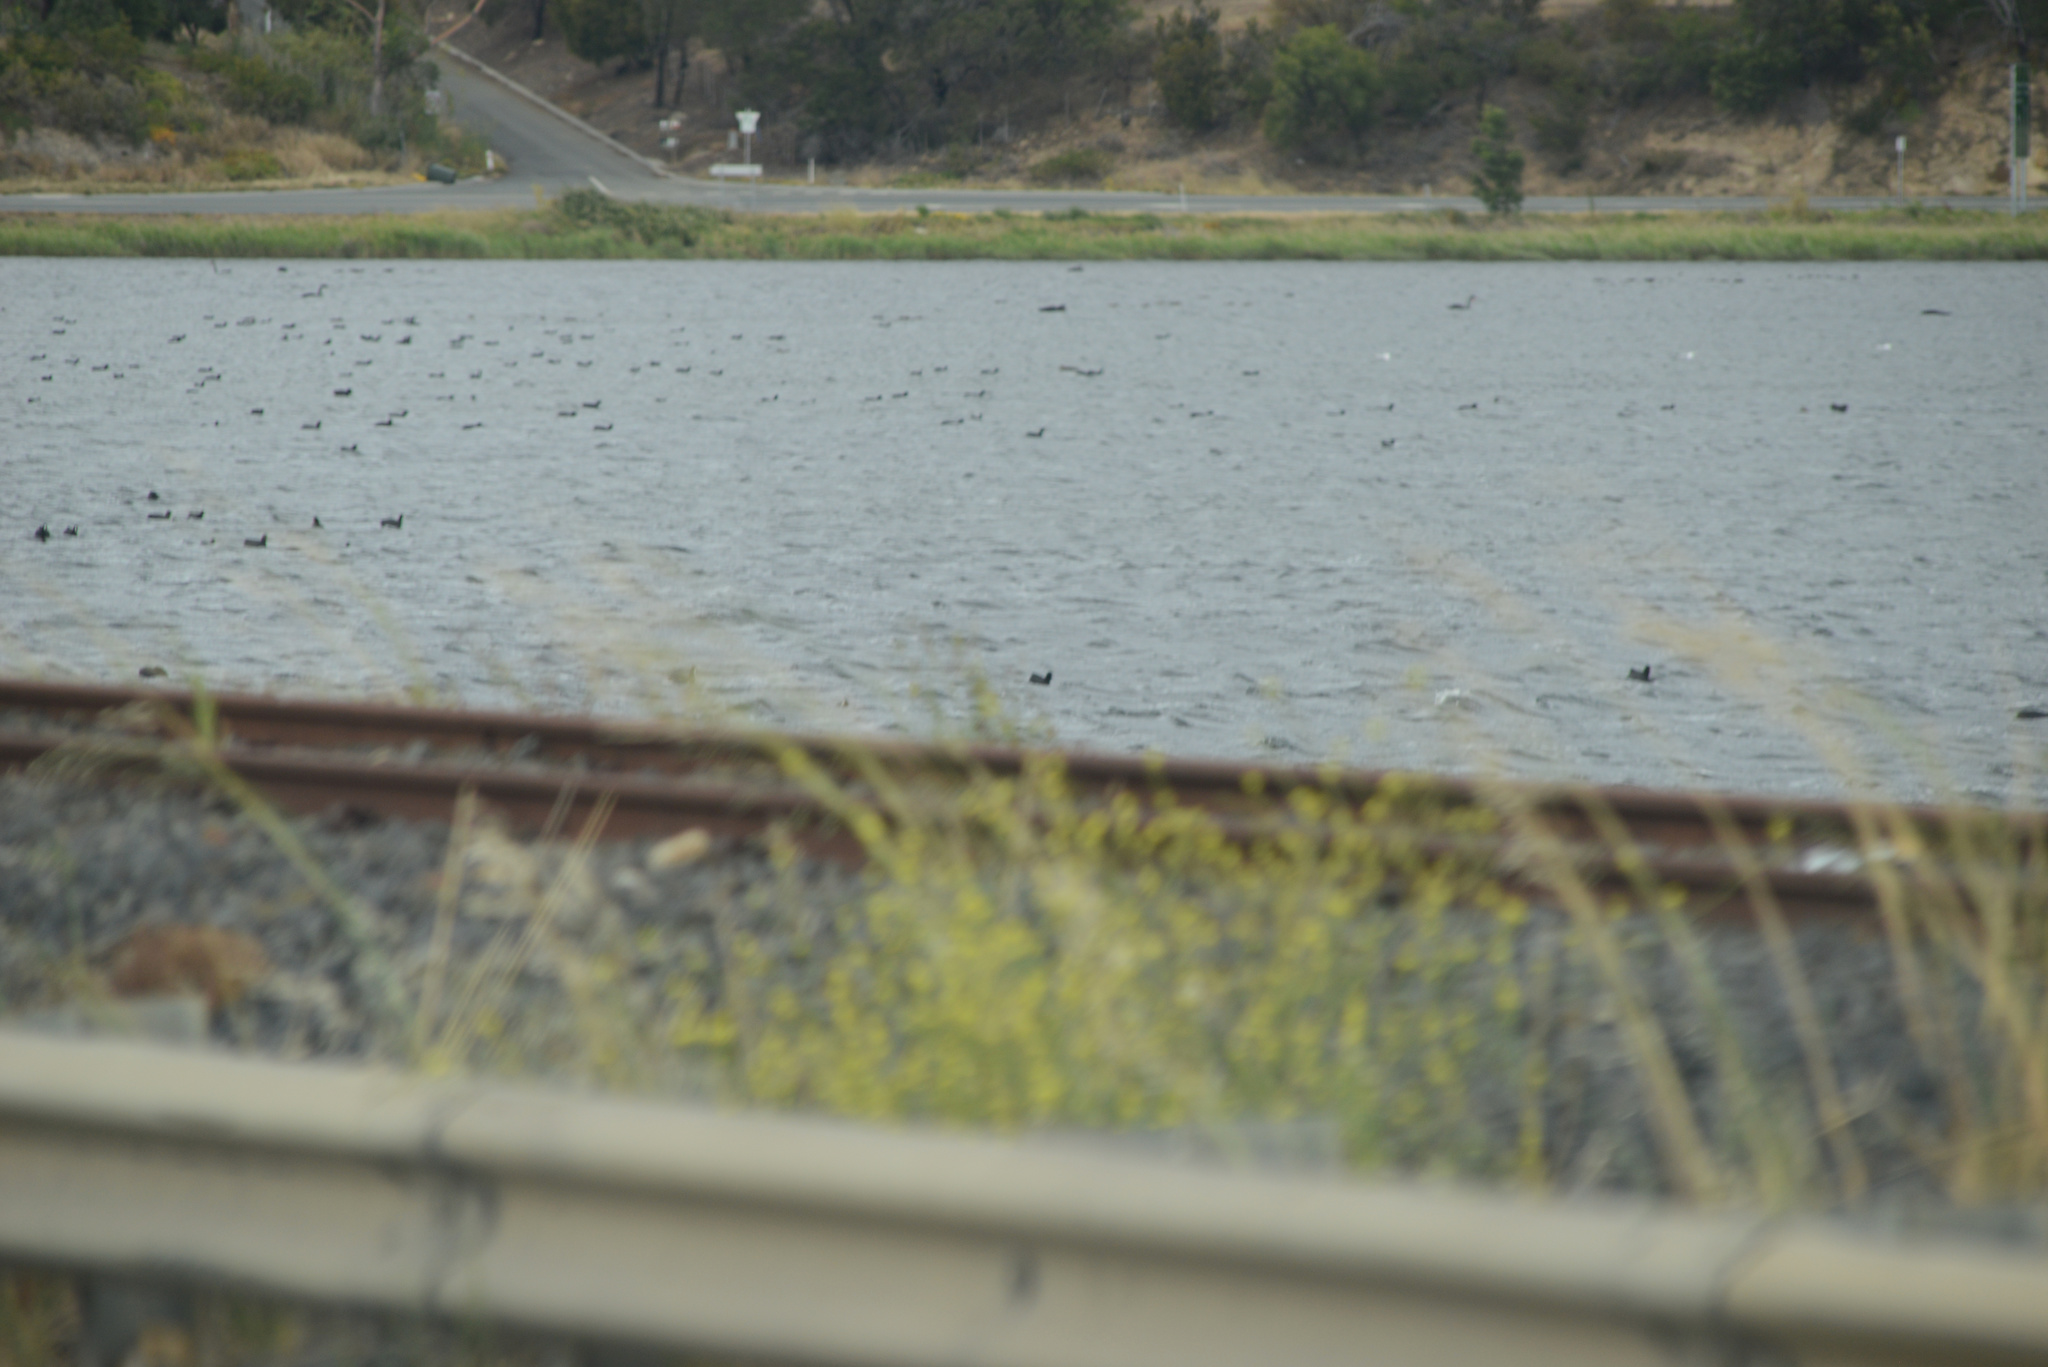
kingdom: Animalia
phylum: Chordata
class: Aves
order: Gruiformes
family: Rallidae
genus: Fulica
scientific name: Fulica atra
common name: Eurasian coot
